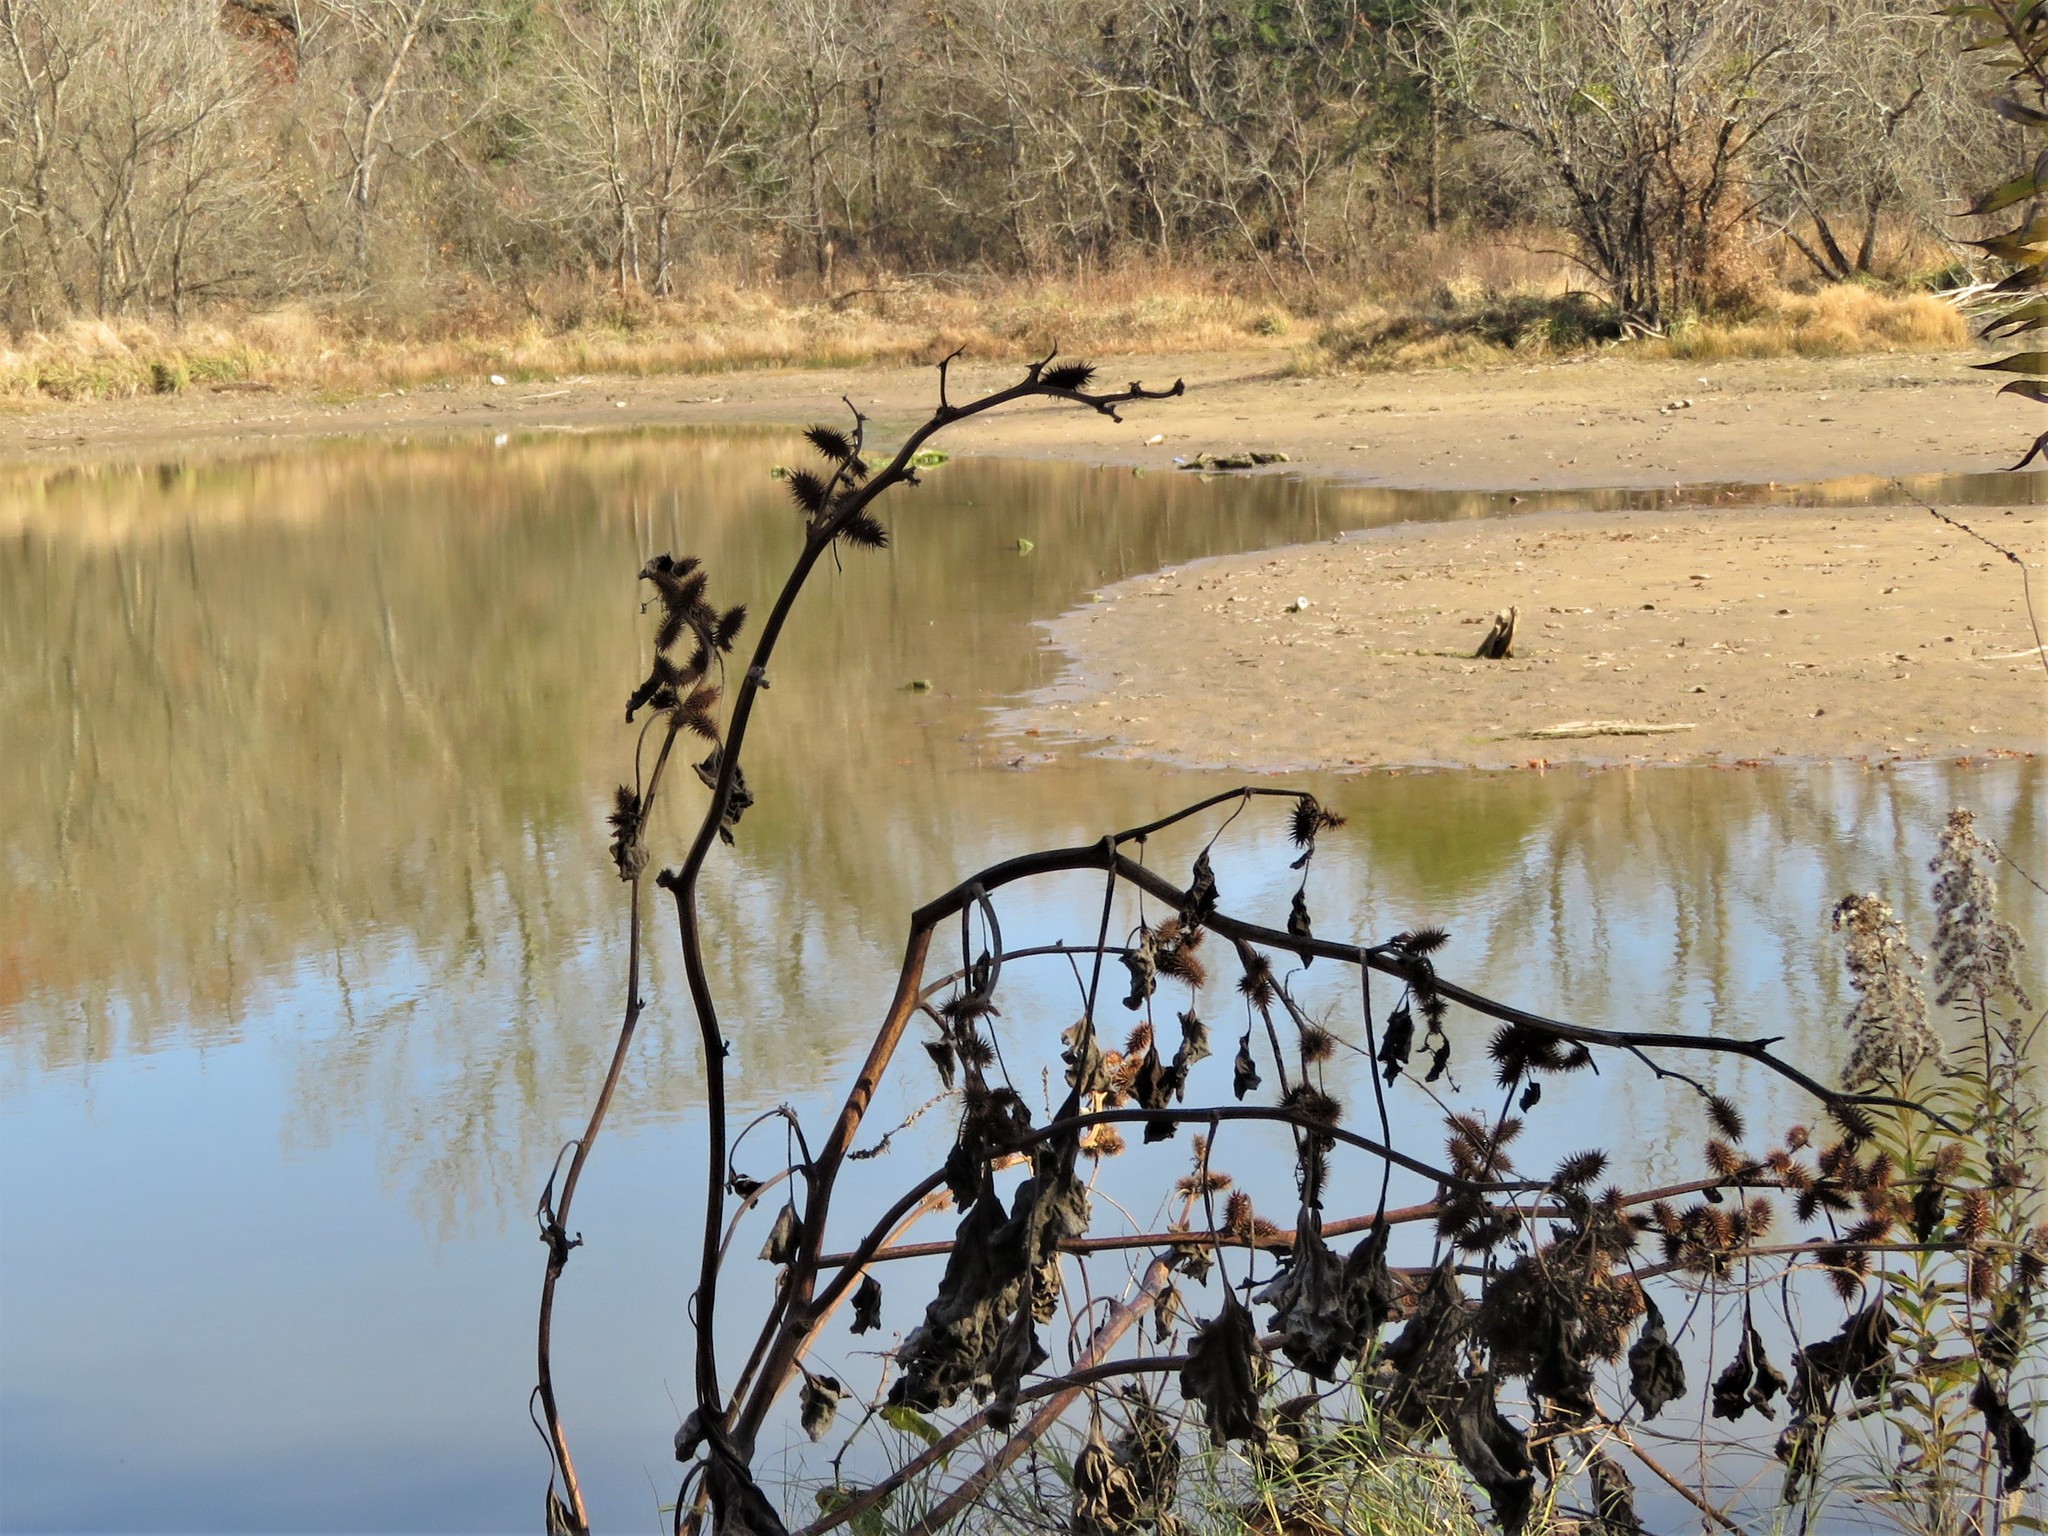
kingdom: Plantae
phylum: Tracheophyta
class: Magnoliopsida
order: Asterales
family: Asteraceae
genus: Xanthium
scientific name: Xanthium strumarium
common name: Rough cocklebur
